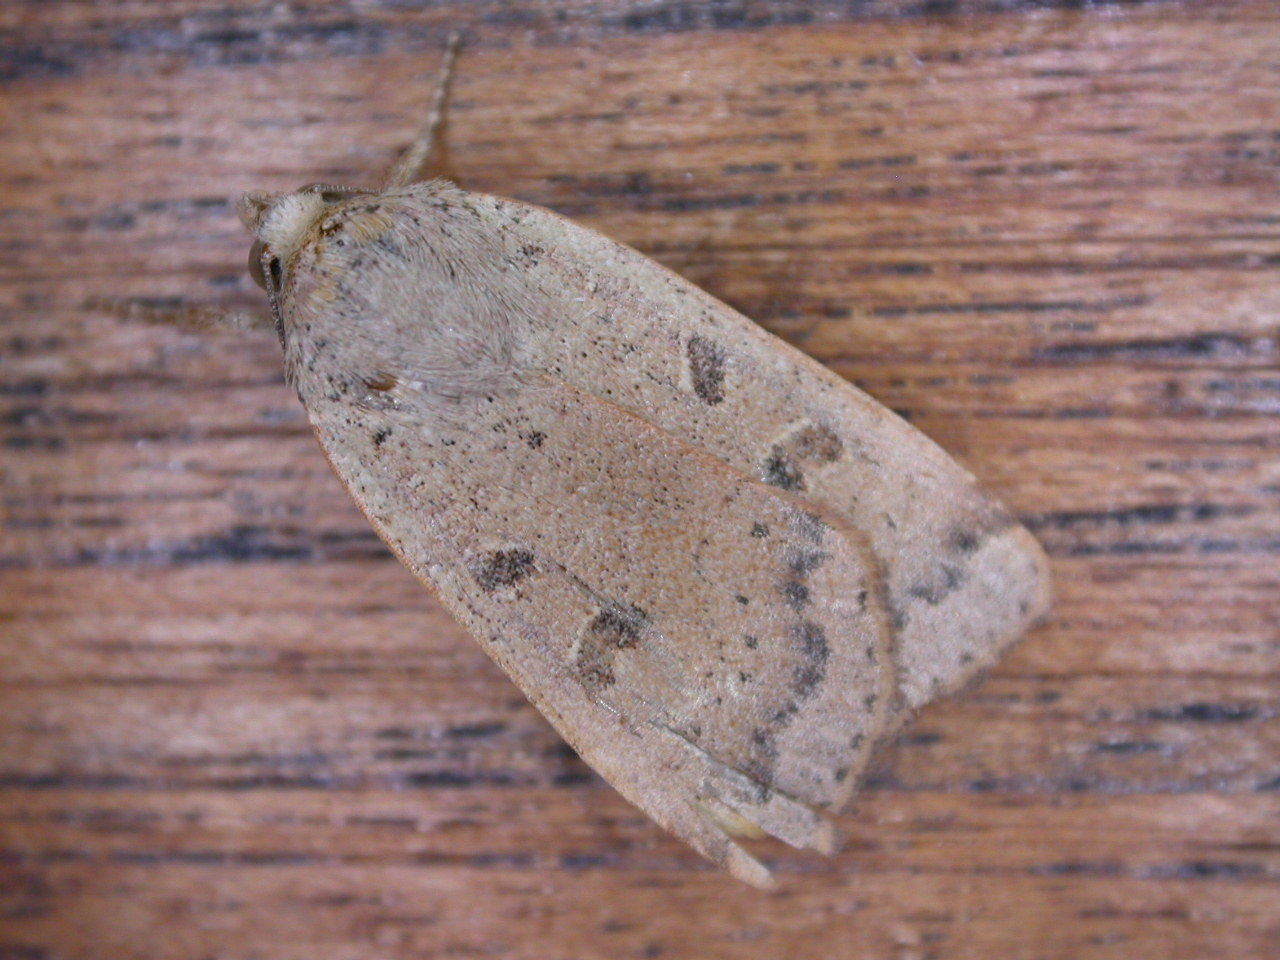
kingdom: Animalia
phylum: Arthropoda
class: Insecta
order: Lepidoptera
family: Noctuidae
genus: Noctua
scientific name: Noctua comes
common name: Lesser yellow underwing
